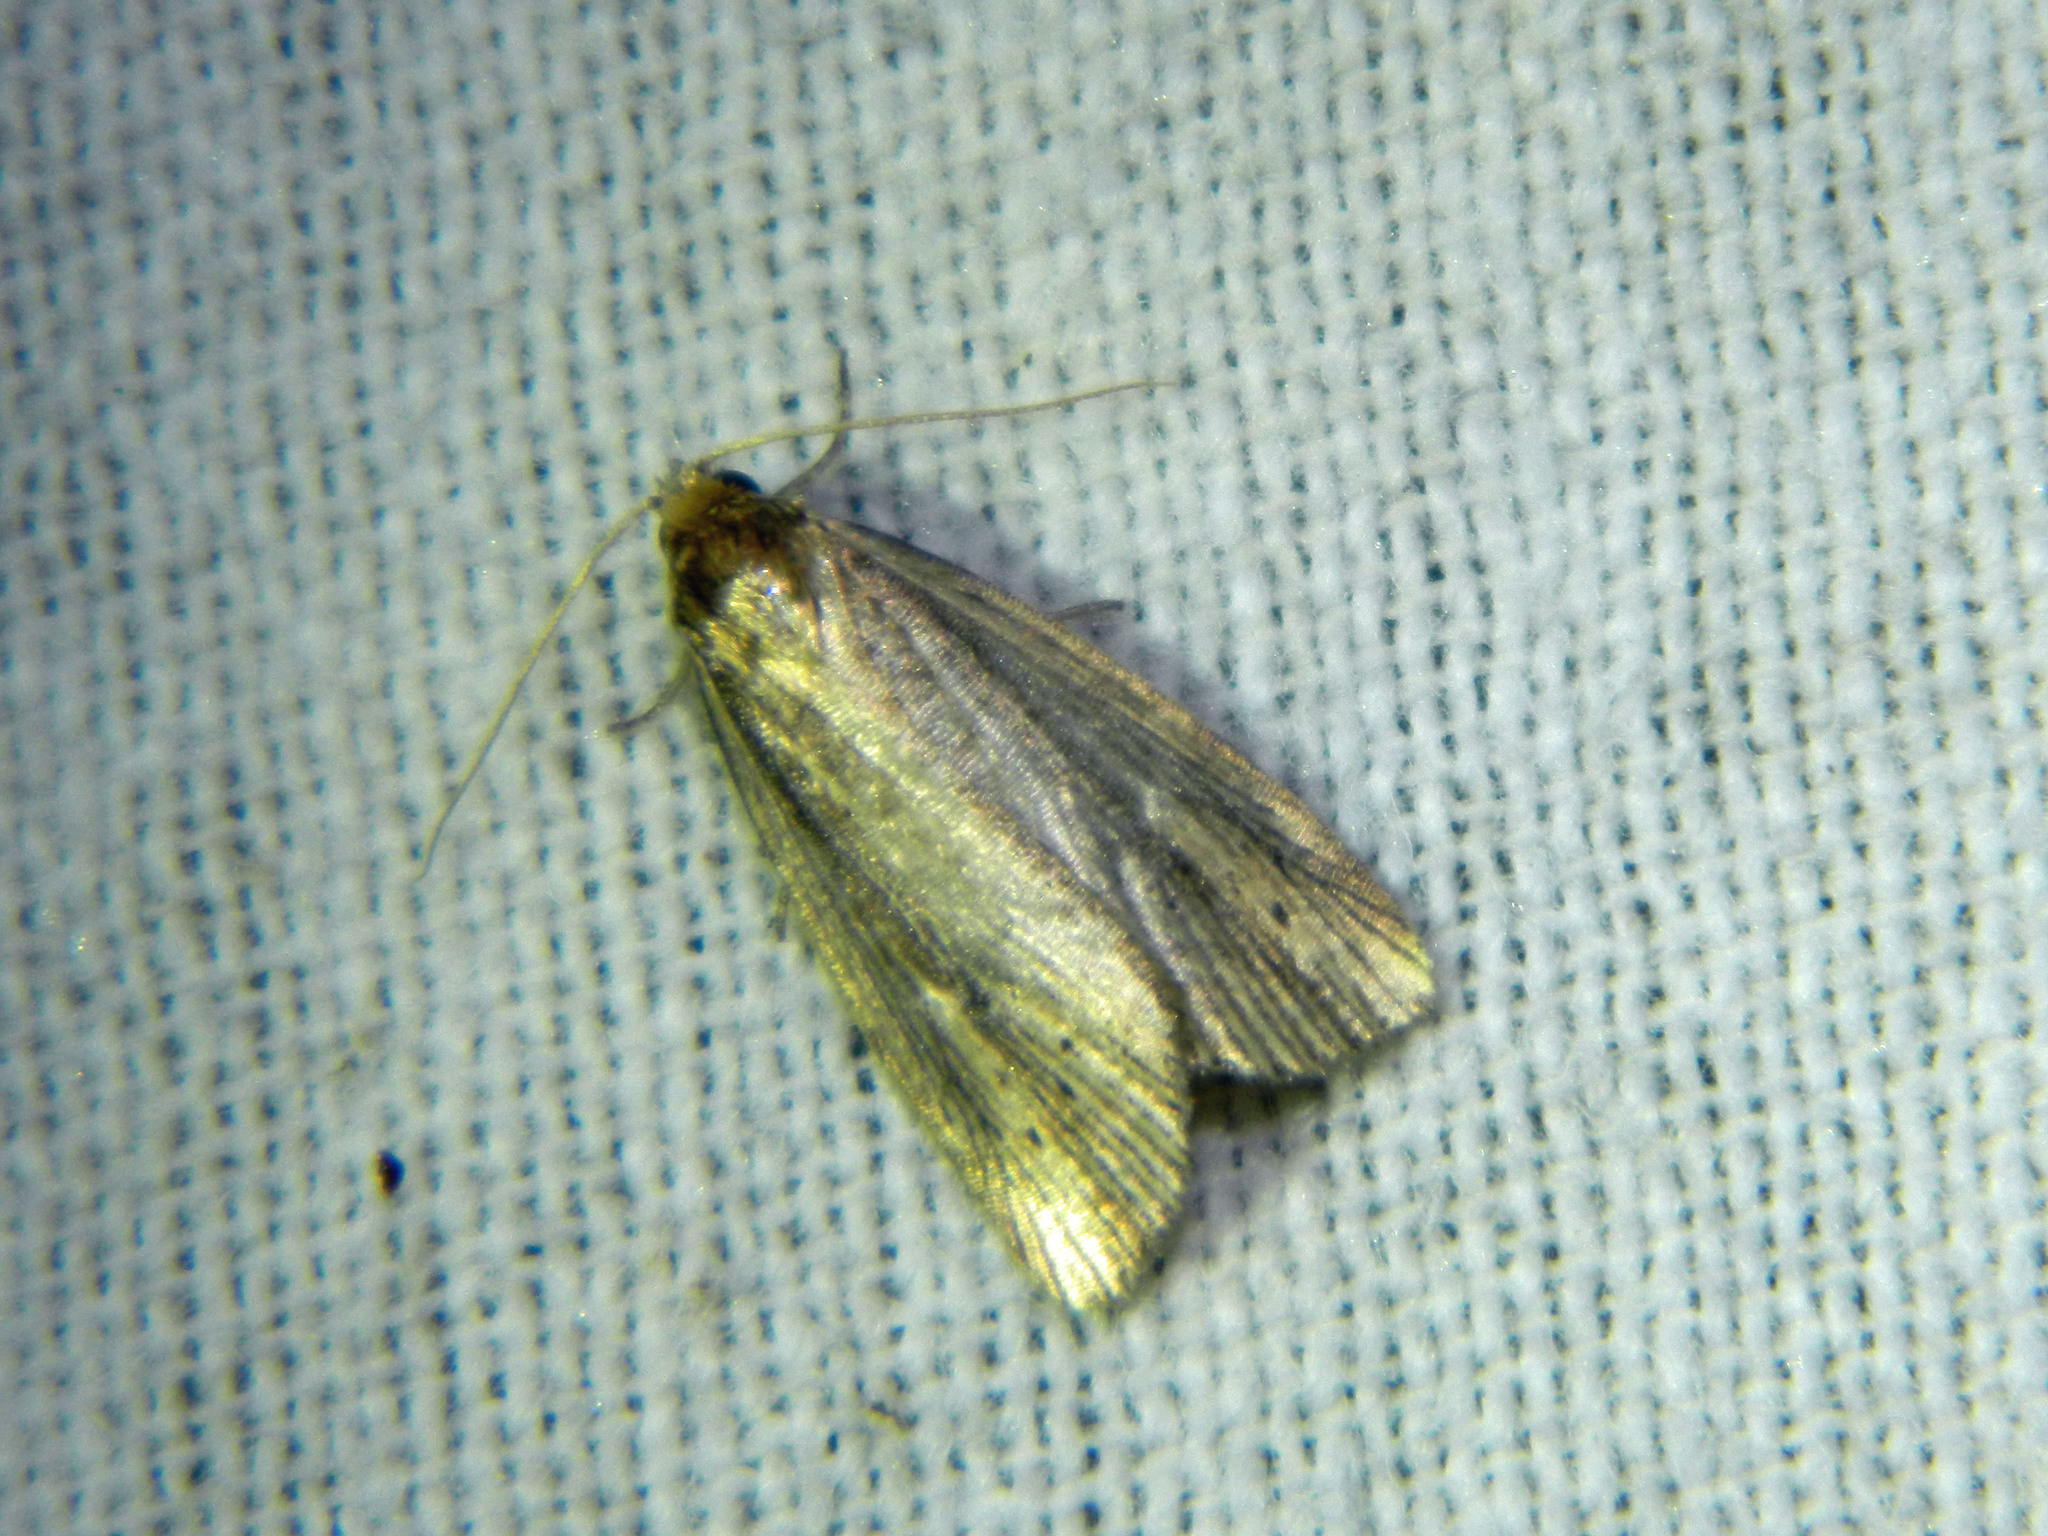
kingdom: Animalia
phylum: Arthropoda
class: Insecta
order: Lepidoptera
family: Noctuidae
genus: Photedes
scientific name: Photedes defecta
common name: Narrow-winged borer moth
